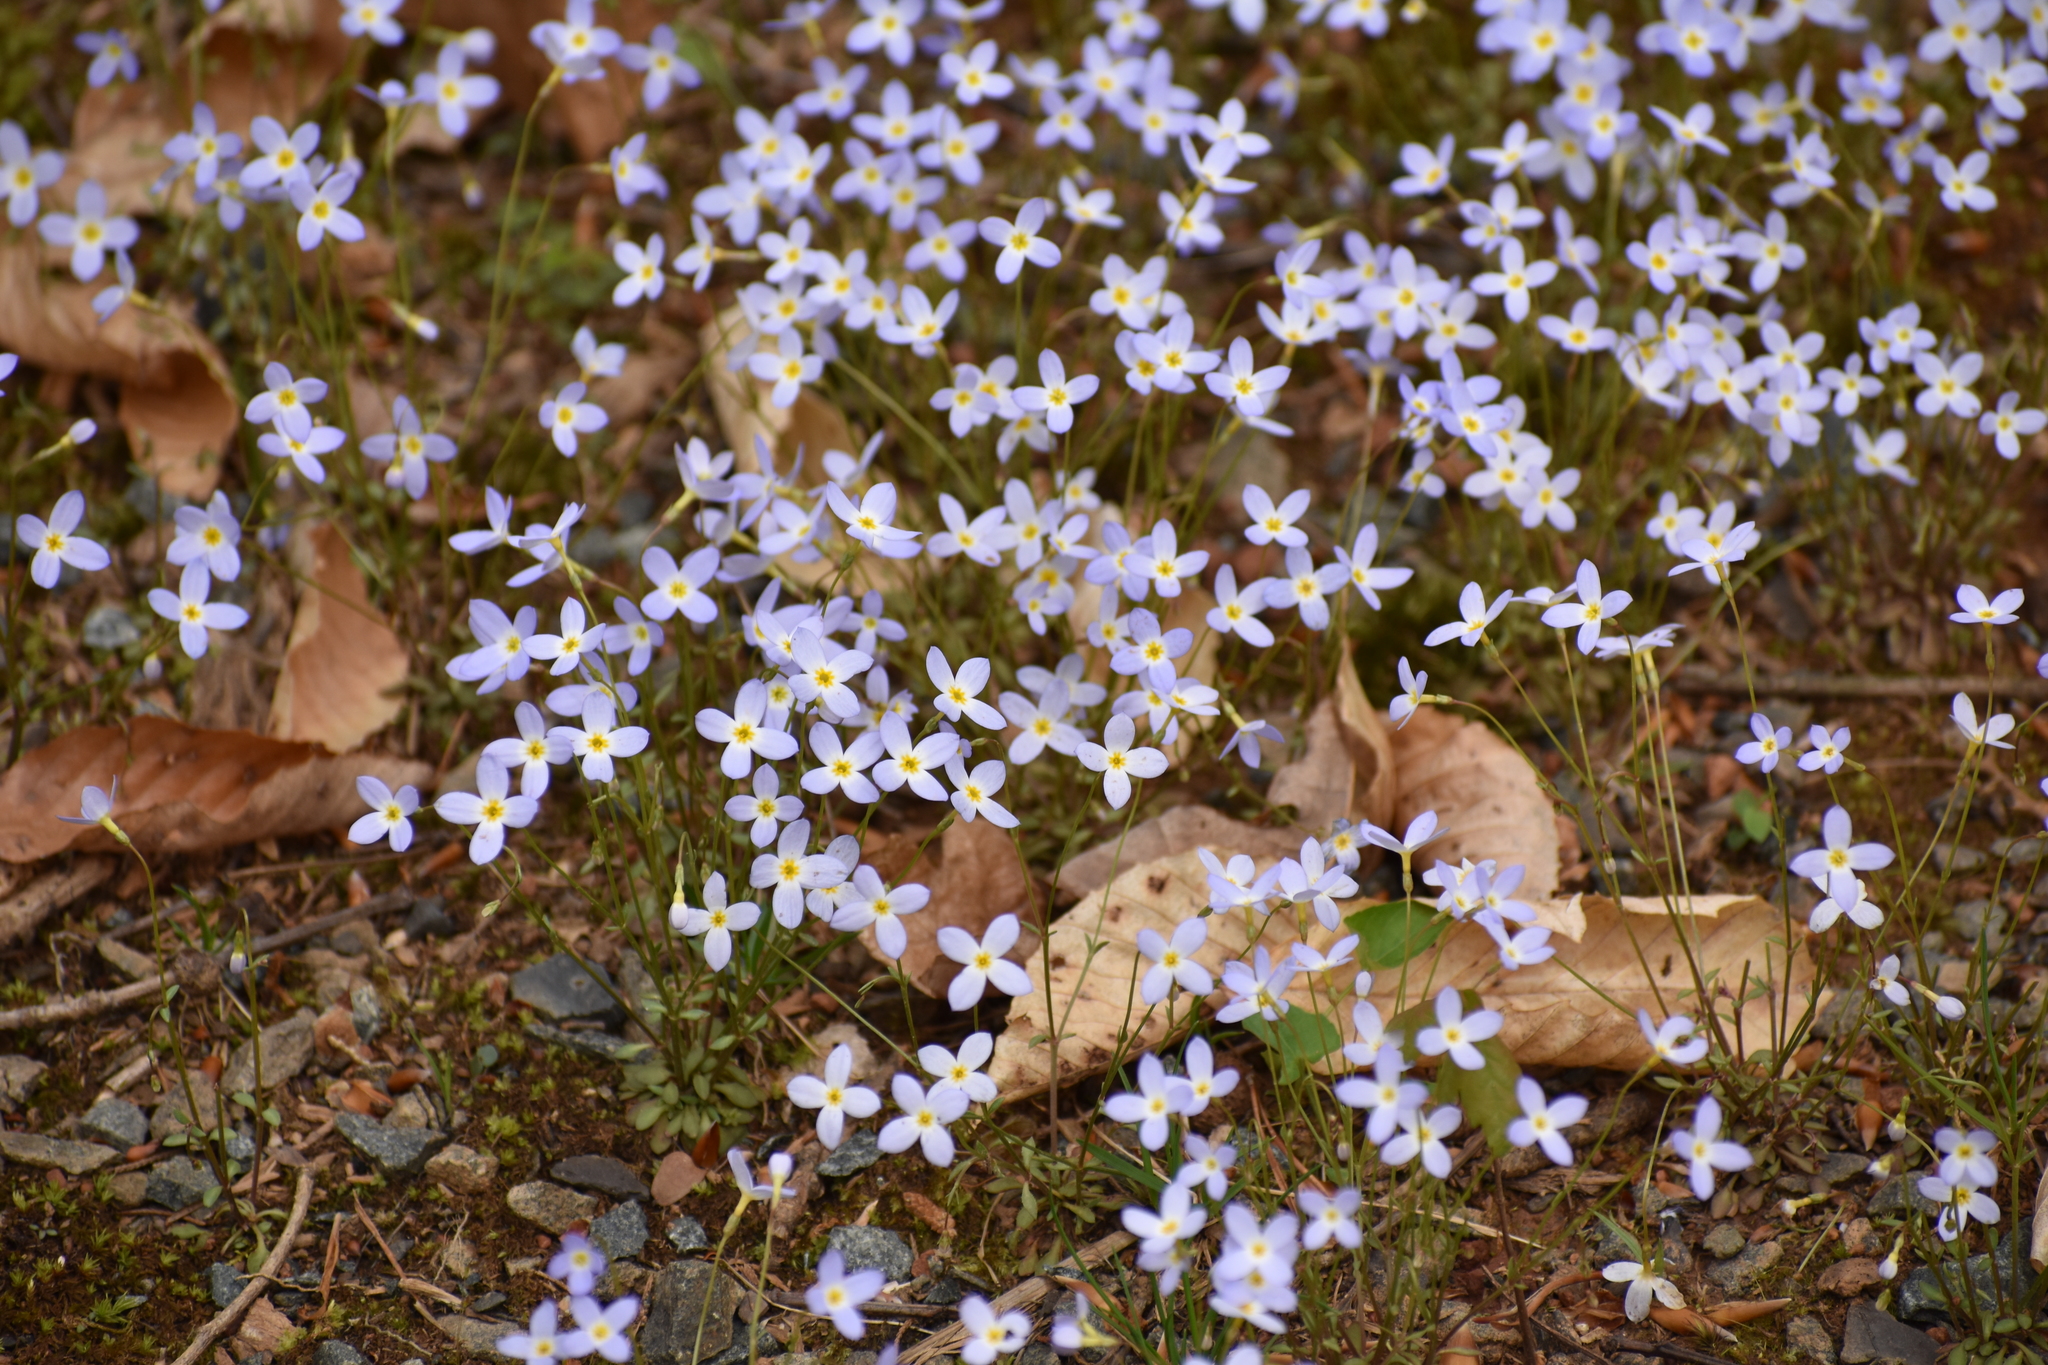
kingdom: Plantae
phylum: Tracheophyta
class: Magnoliopsida
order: Gentianales
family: Rubiaceae
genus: Houstonia
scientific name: Houstonia caerulea
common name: Bluets
